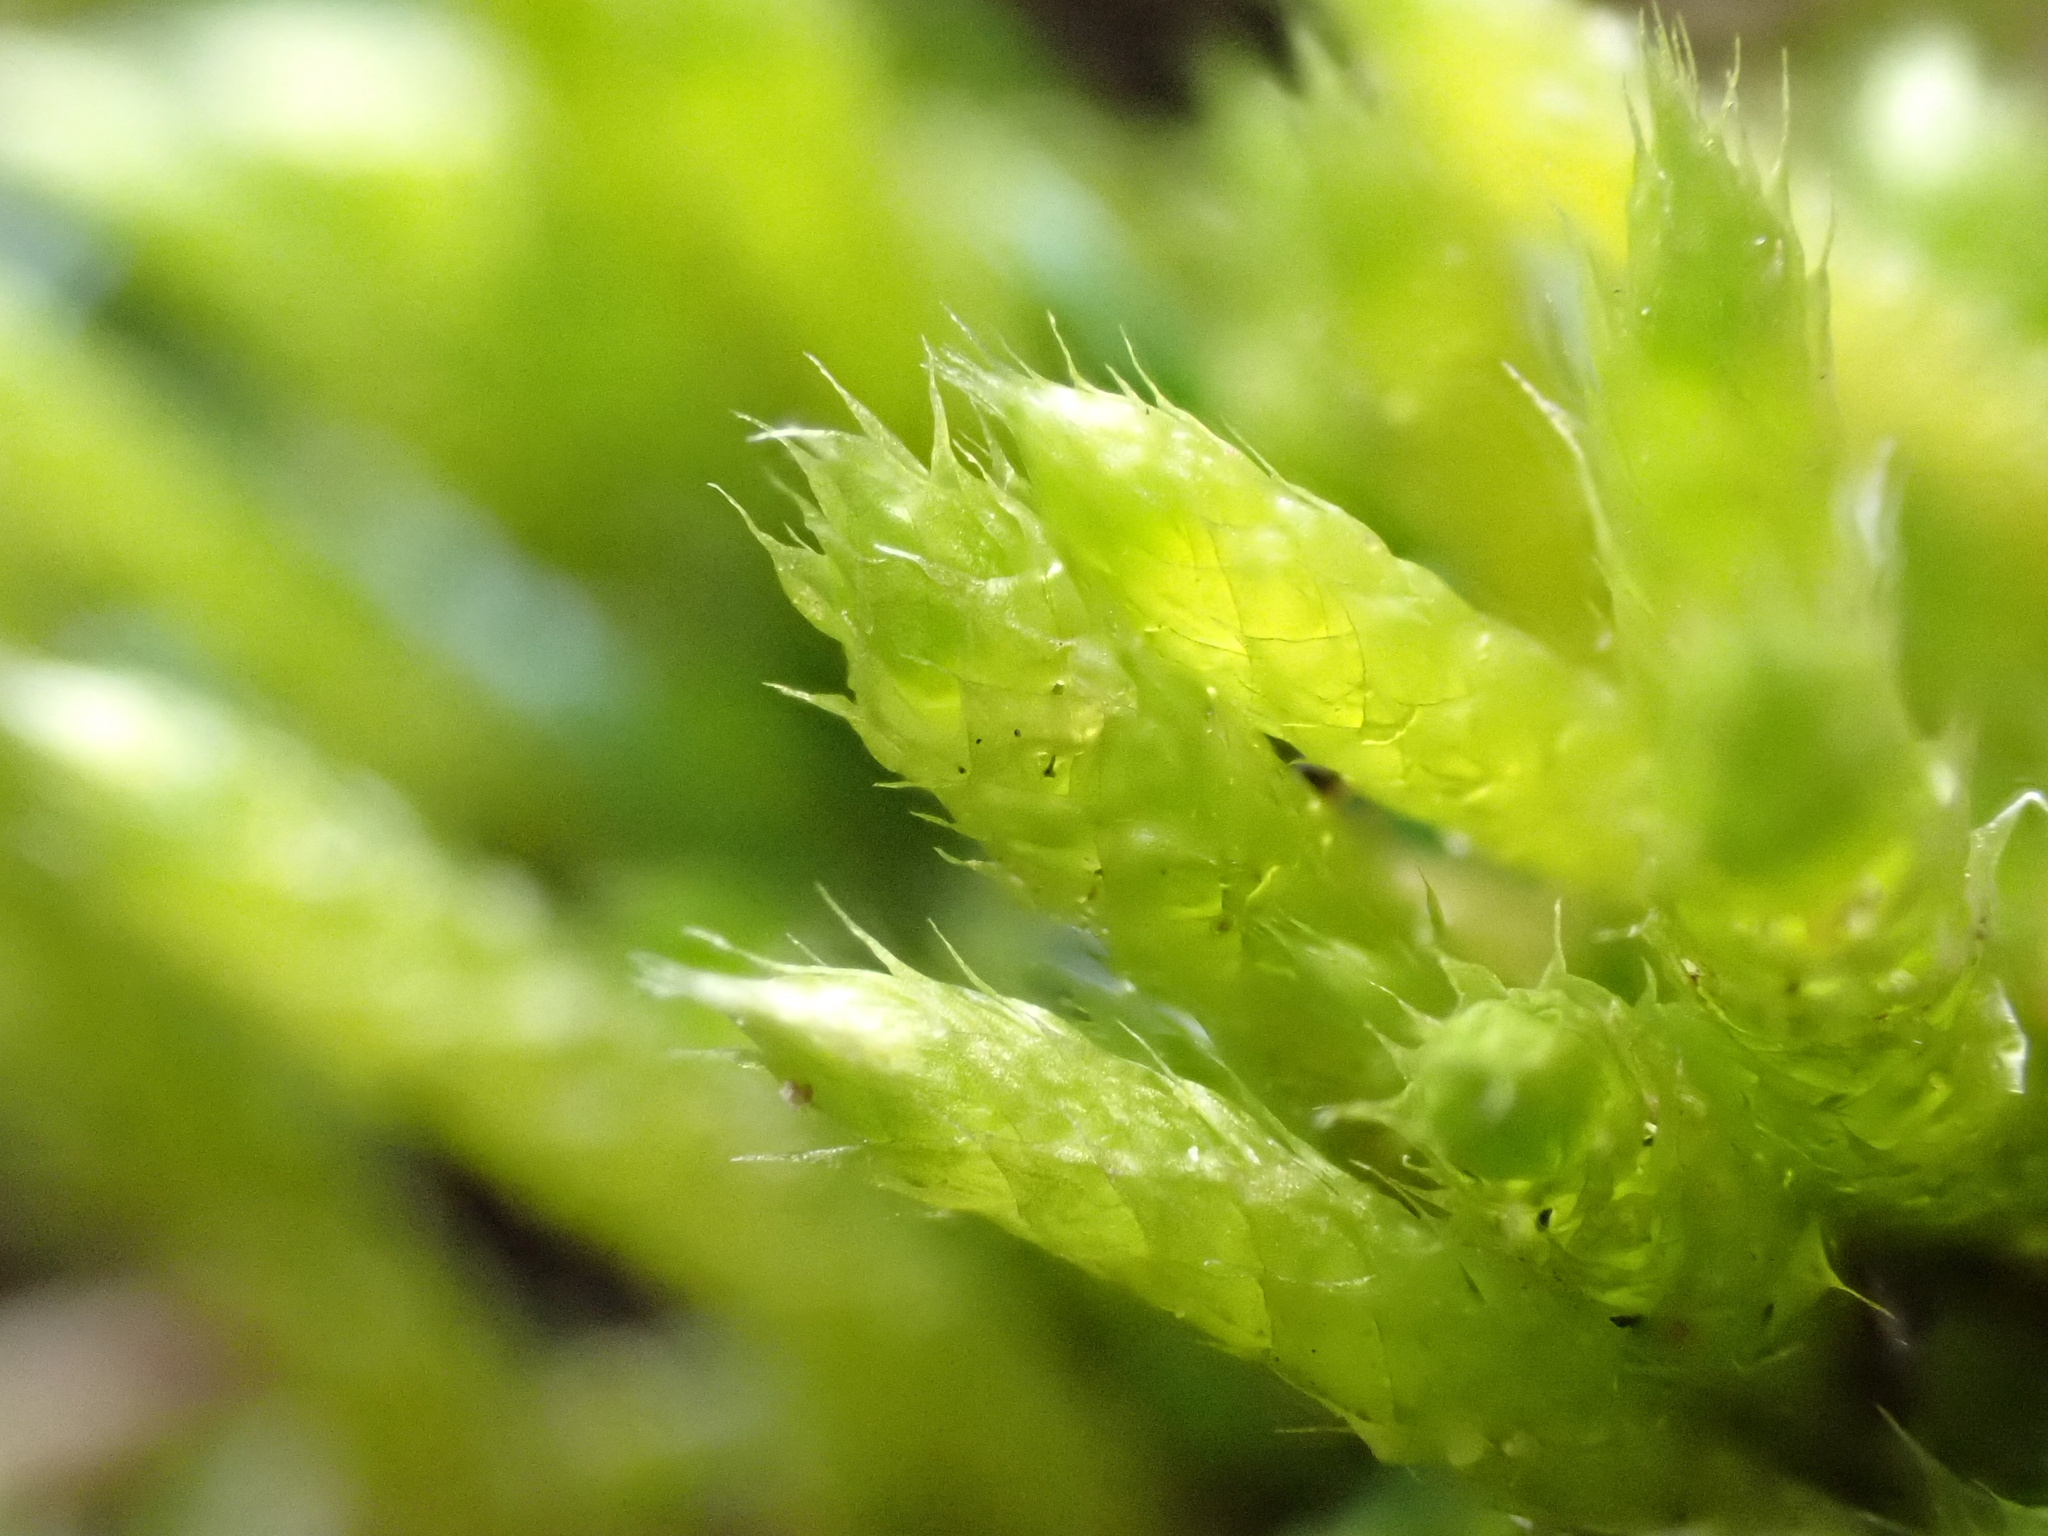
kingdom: Plantae
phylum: Bryophyta
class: Bryopsida
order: Hypnales
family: Brachytheciaceae
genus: Brachythecium
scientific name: Brachythecium albicans
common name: Whitish ragged moss
